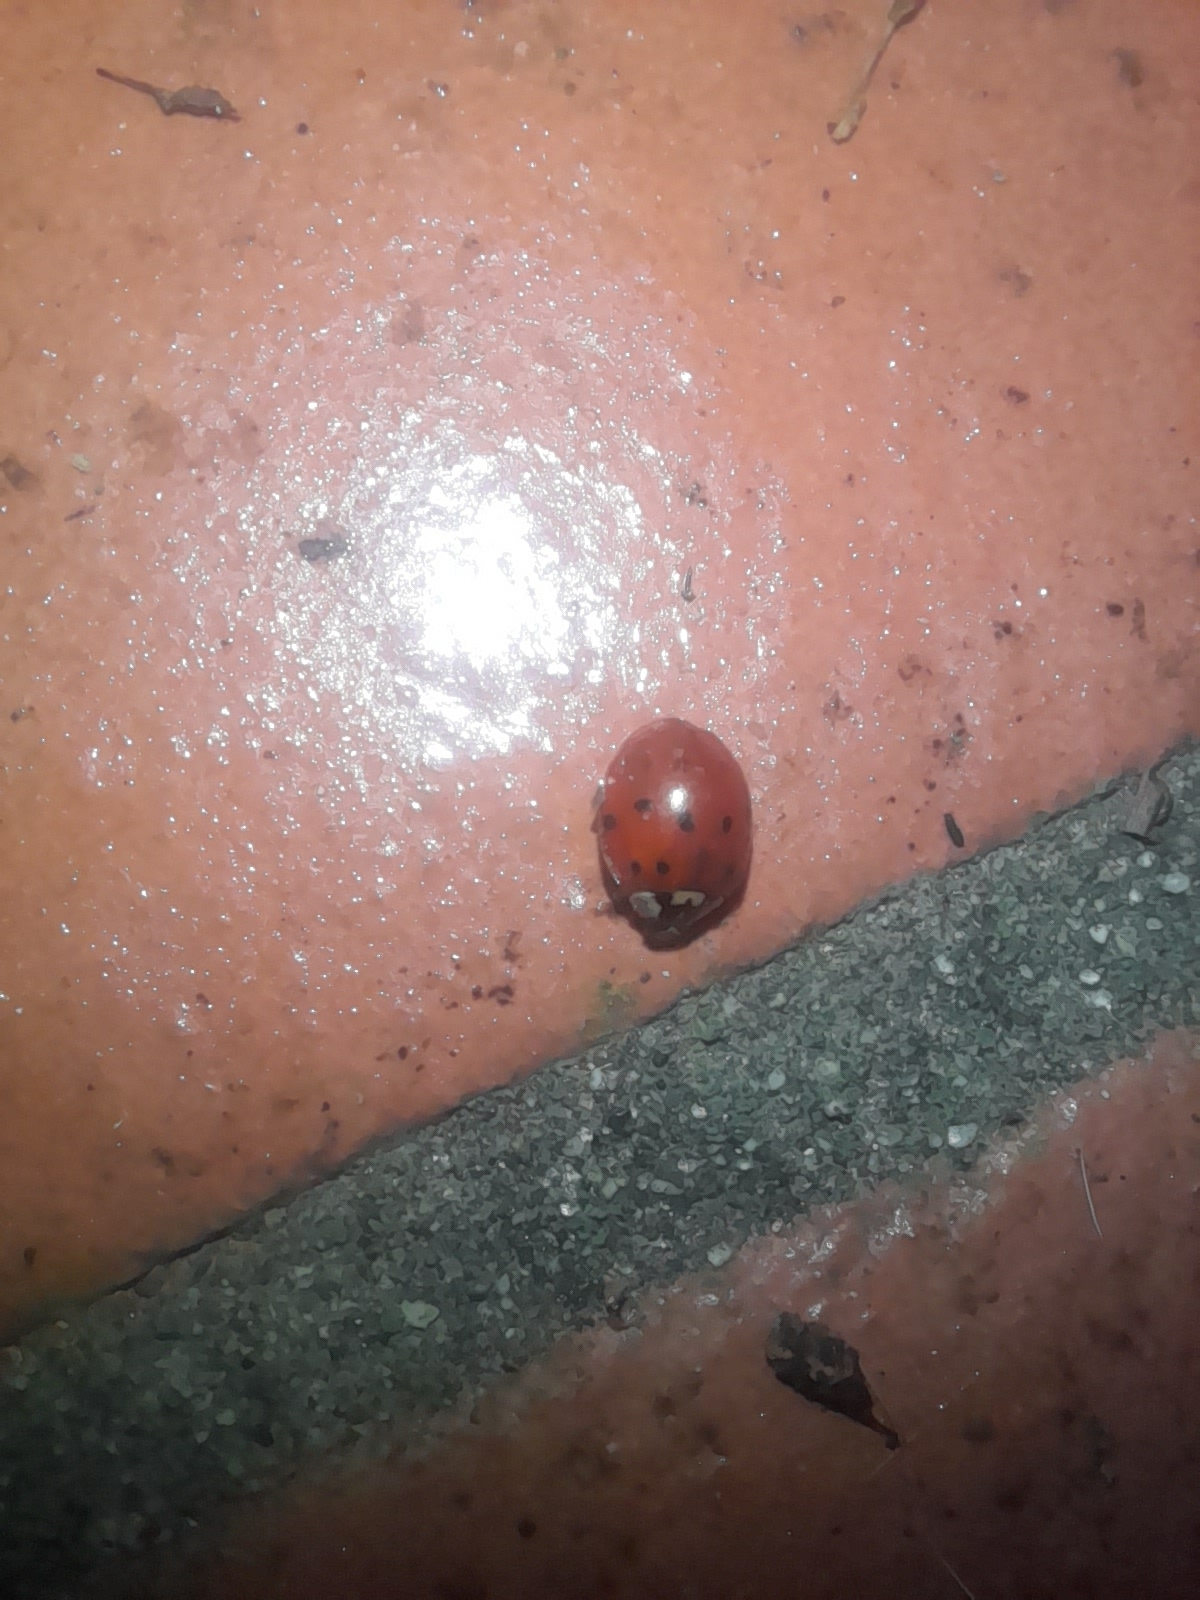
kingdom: Animalia
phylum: Arthropoda
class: Insecta
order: Coleoptera
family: Coccinellidae
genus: Harmonia
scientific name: Harmonia axyridis
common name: Harlequin ladybird
